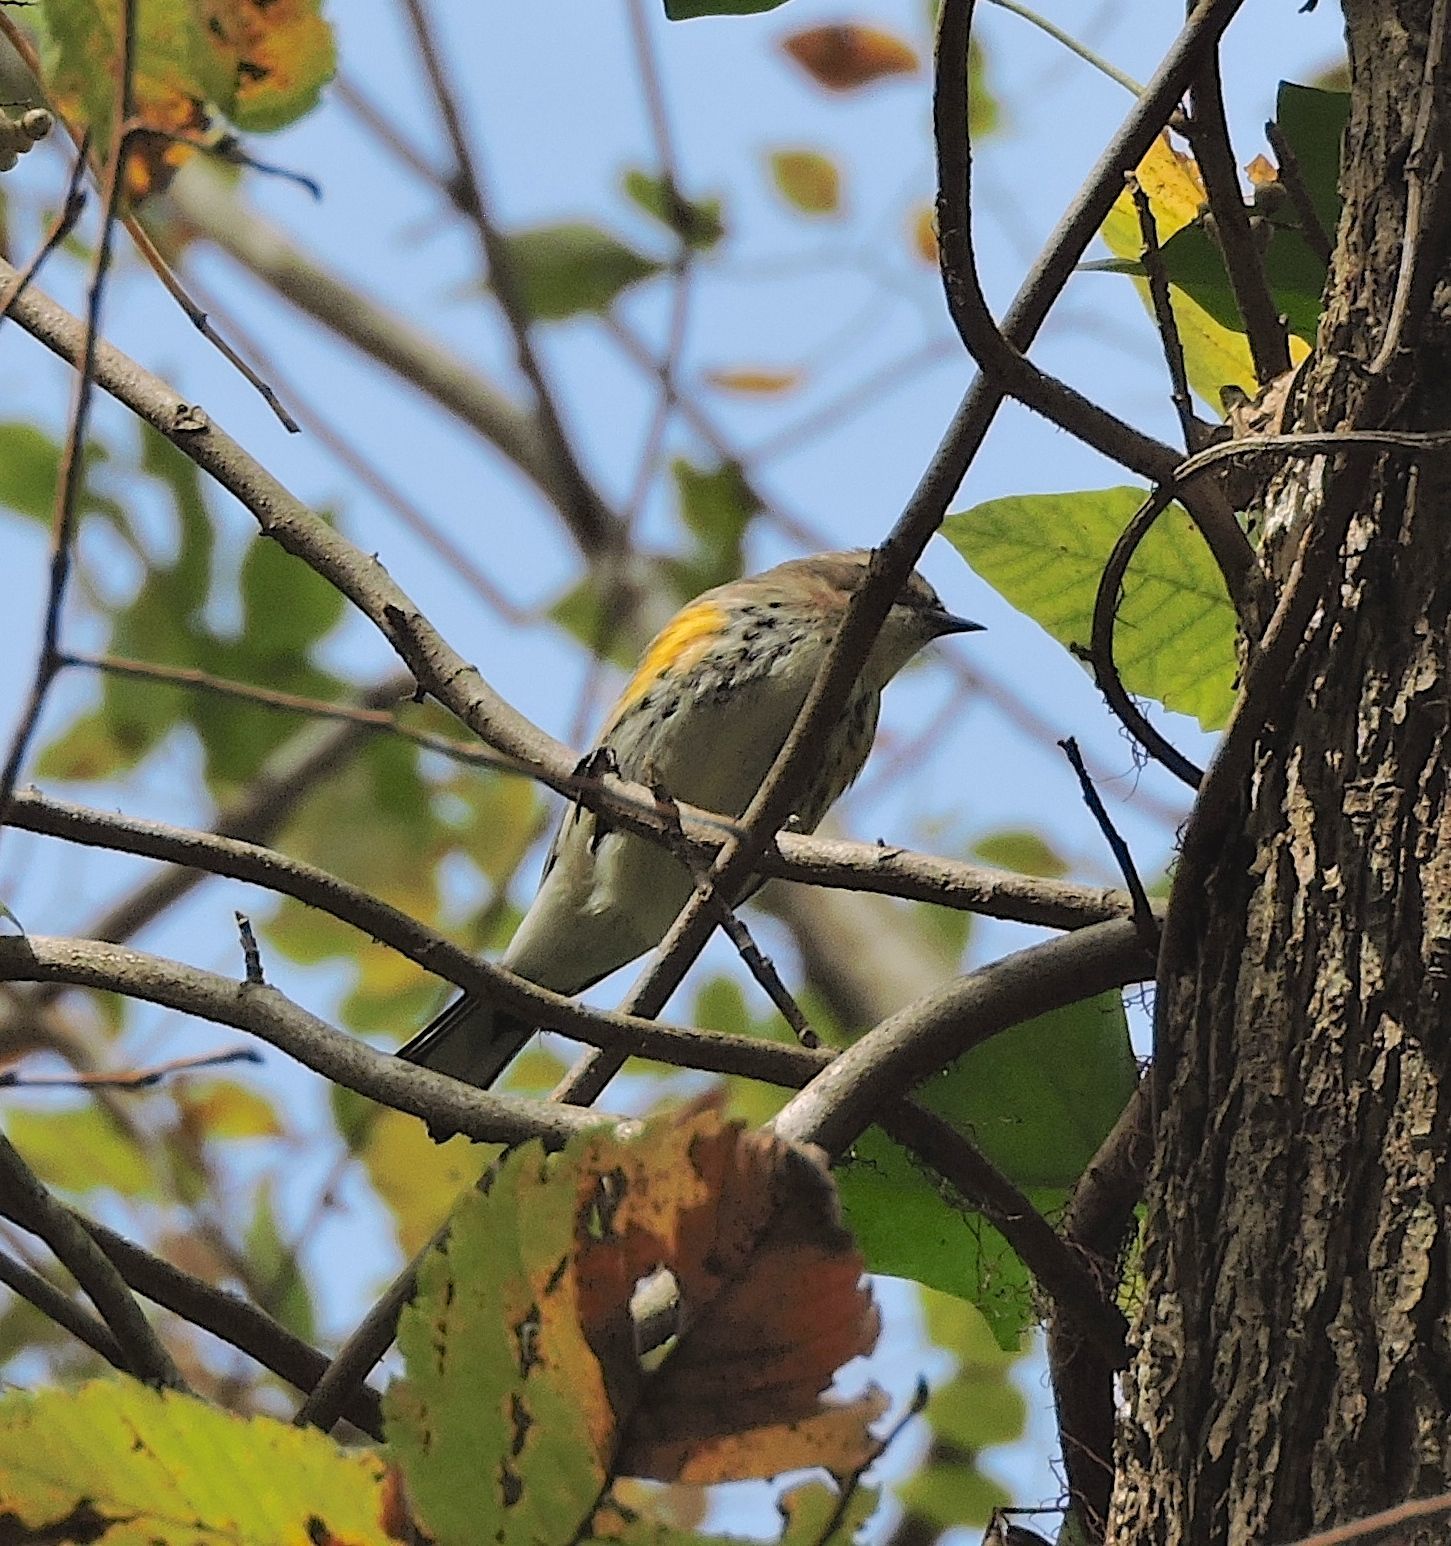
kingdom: Animalia
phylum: Chordata
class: Aves
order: Passeriformes
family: Parulidae
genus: Setophaga
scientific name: Setophaga coronata
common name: Myrtle warbler
